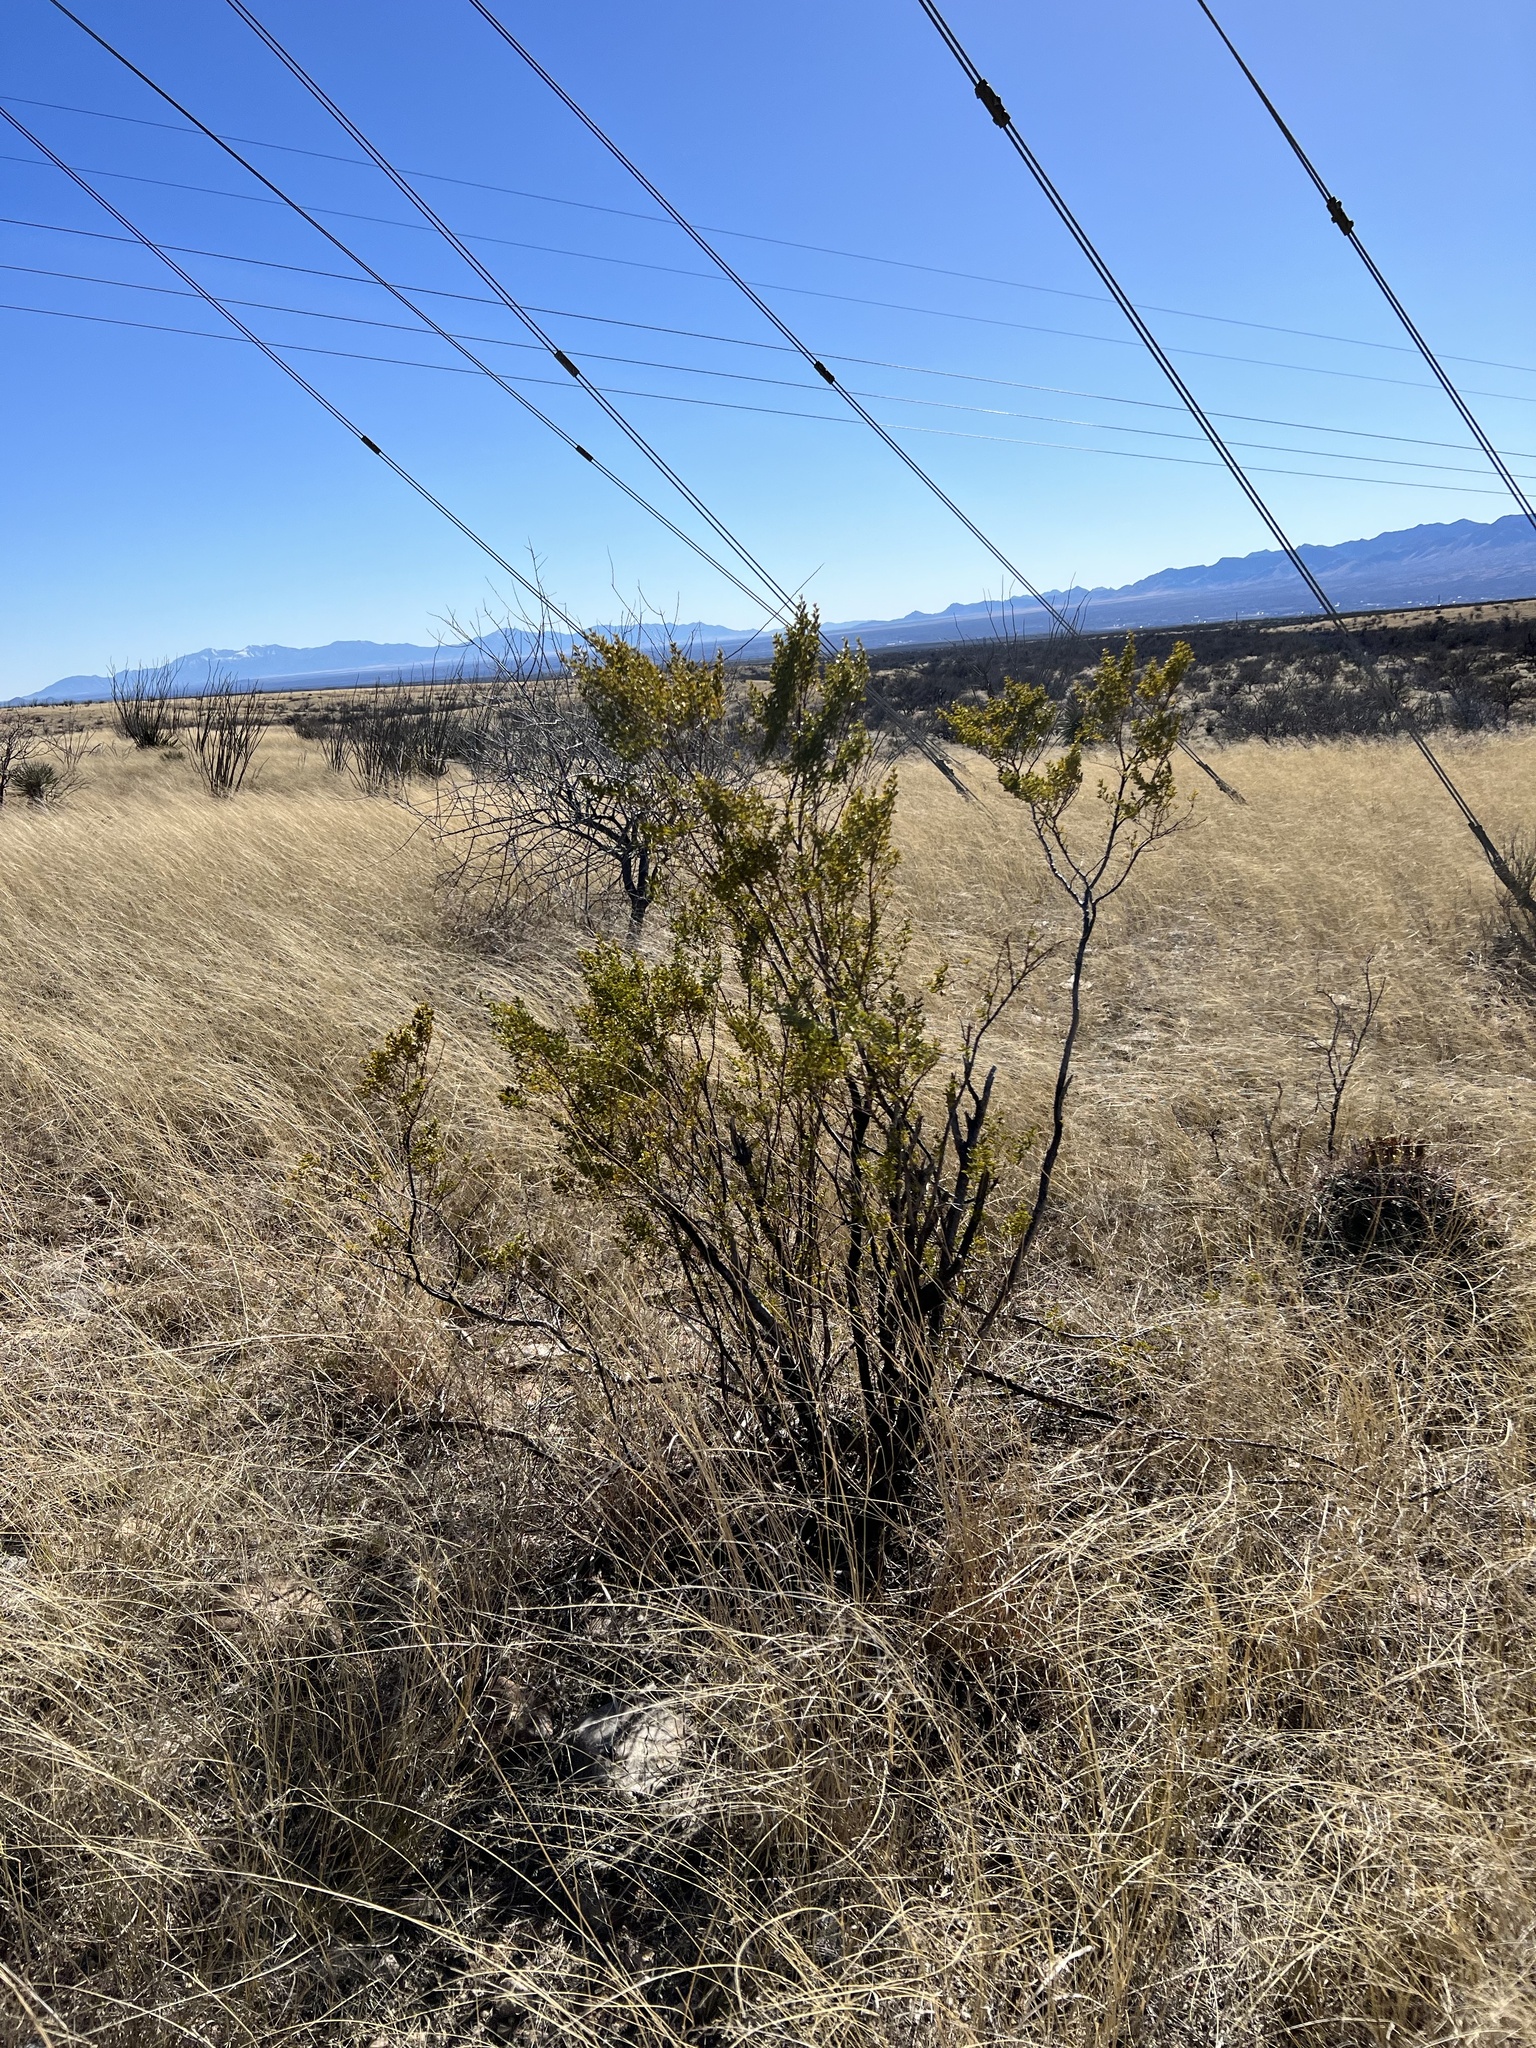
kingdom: Plantae
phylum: Tracheophyta
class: Magnoliopsida
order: Zygophyllales
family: Zygophyllaceae
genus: Larrea
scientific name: Larrea tridentata
